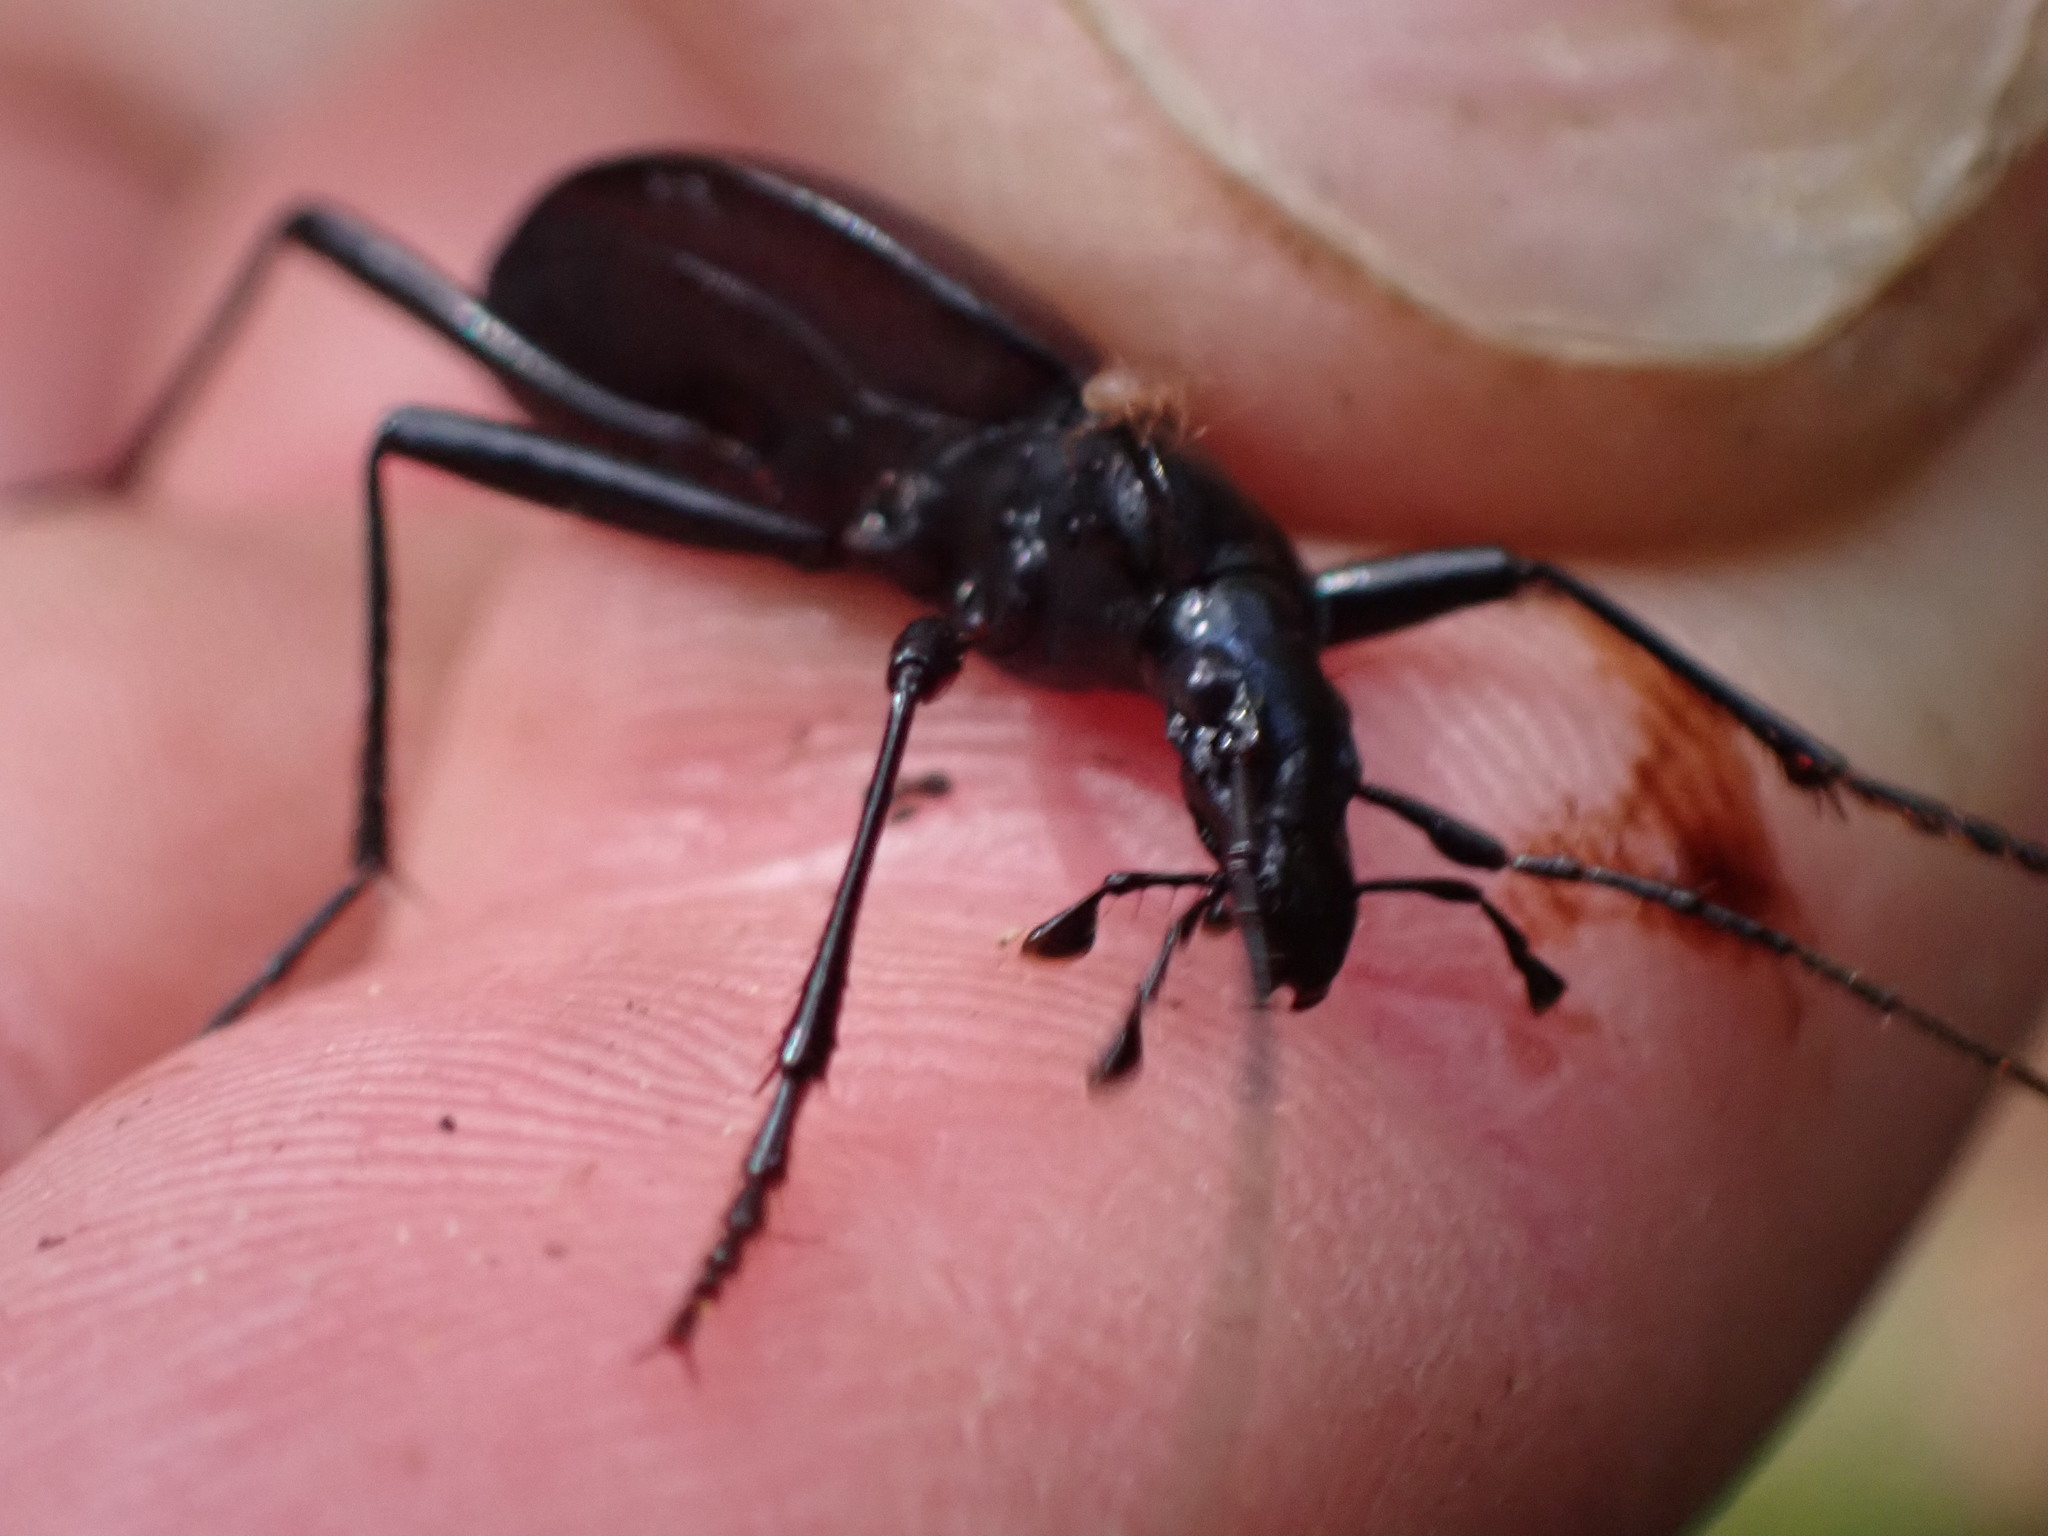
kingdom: Animalia
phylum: Arthropoda
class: Insecta
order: Coleoptera
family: Carabidae
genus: Scaphinotus
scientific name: Scaphinotus angusticollis
